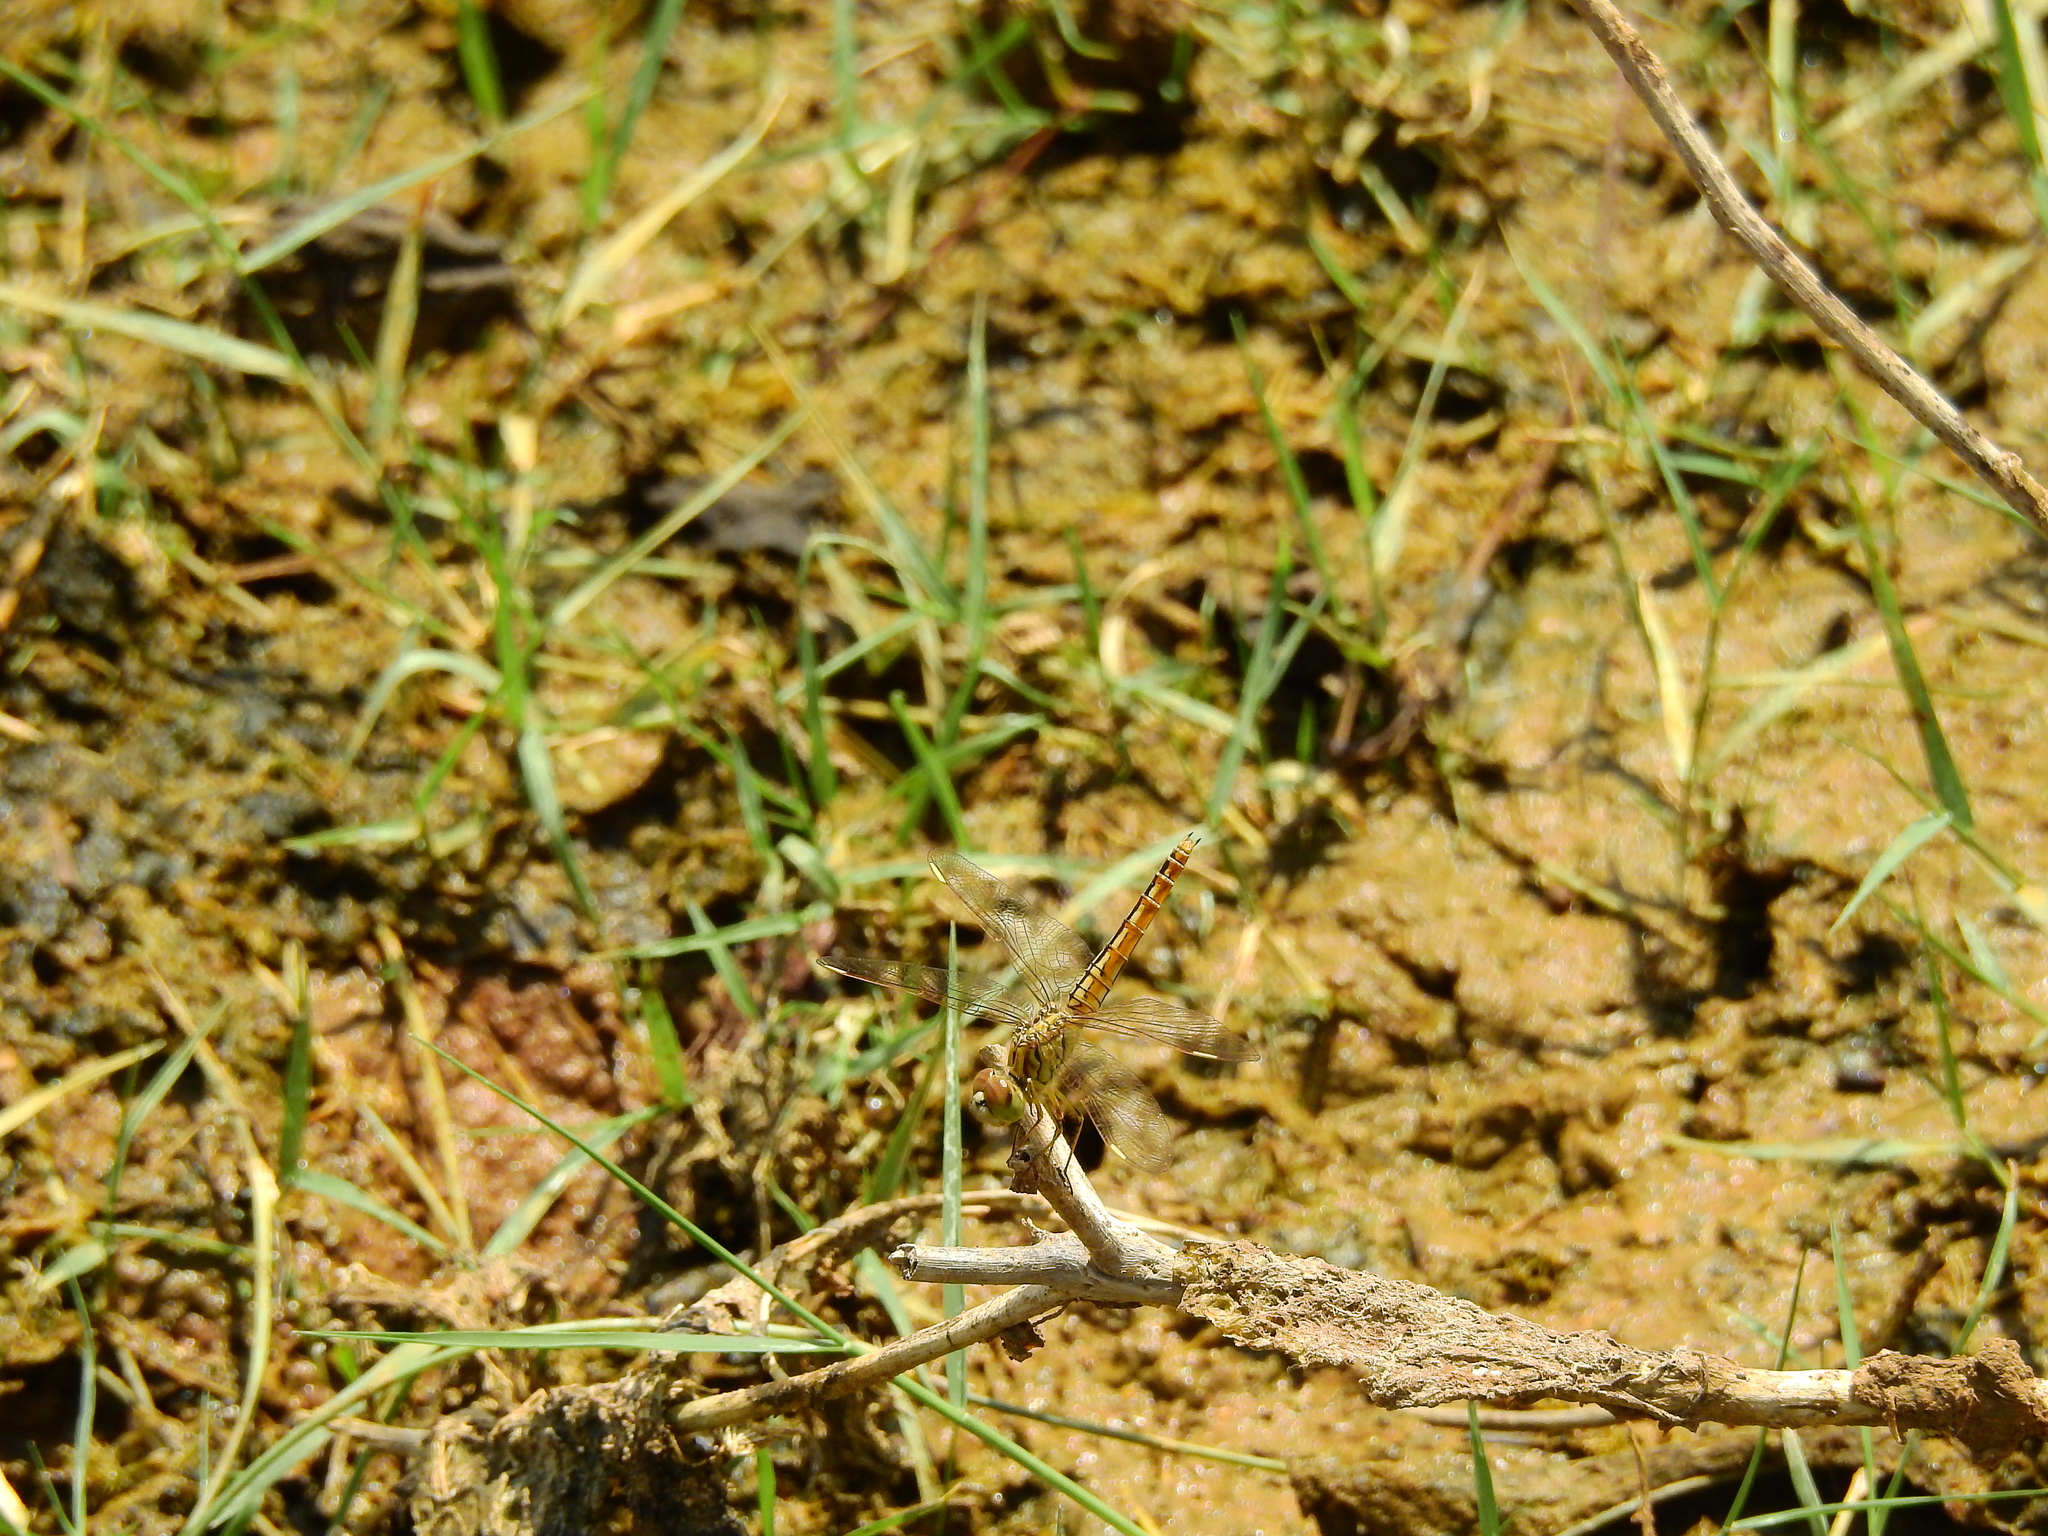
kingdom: Animalia
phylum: Arthropoda
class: Insecta
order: Odonata
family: Libellulidae
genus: Brachythemis
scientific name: Brachythemis contaminata
